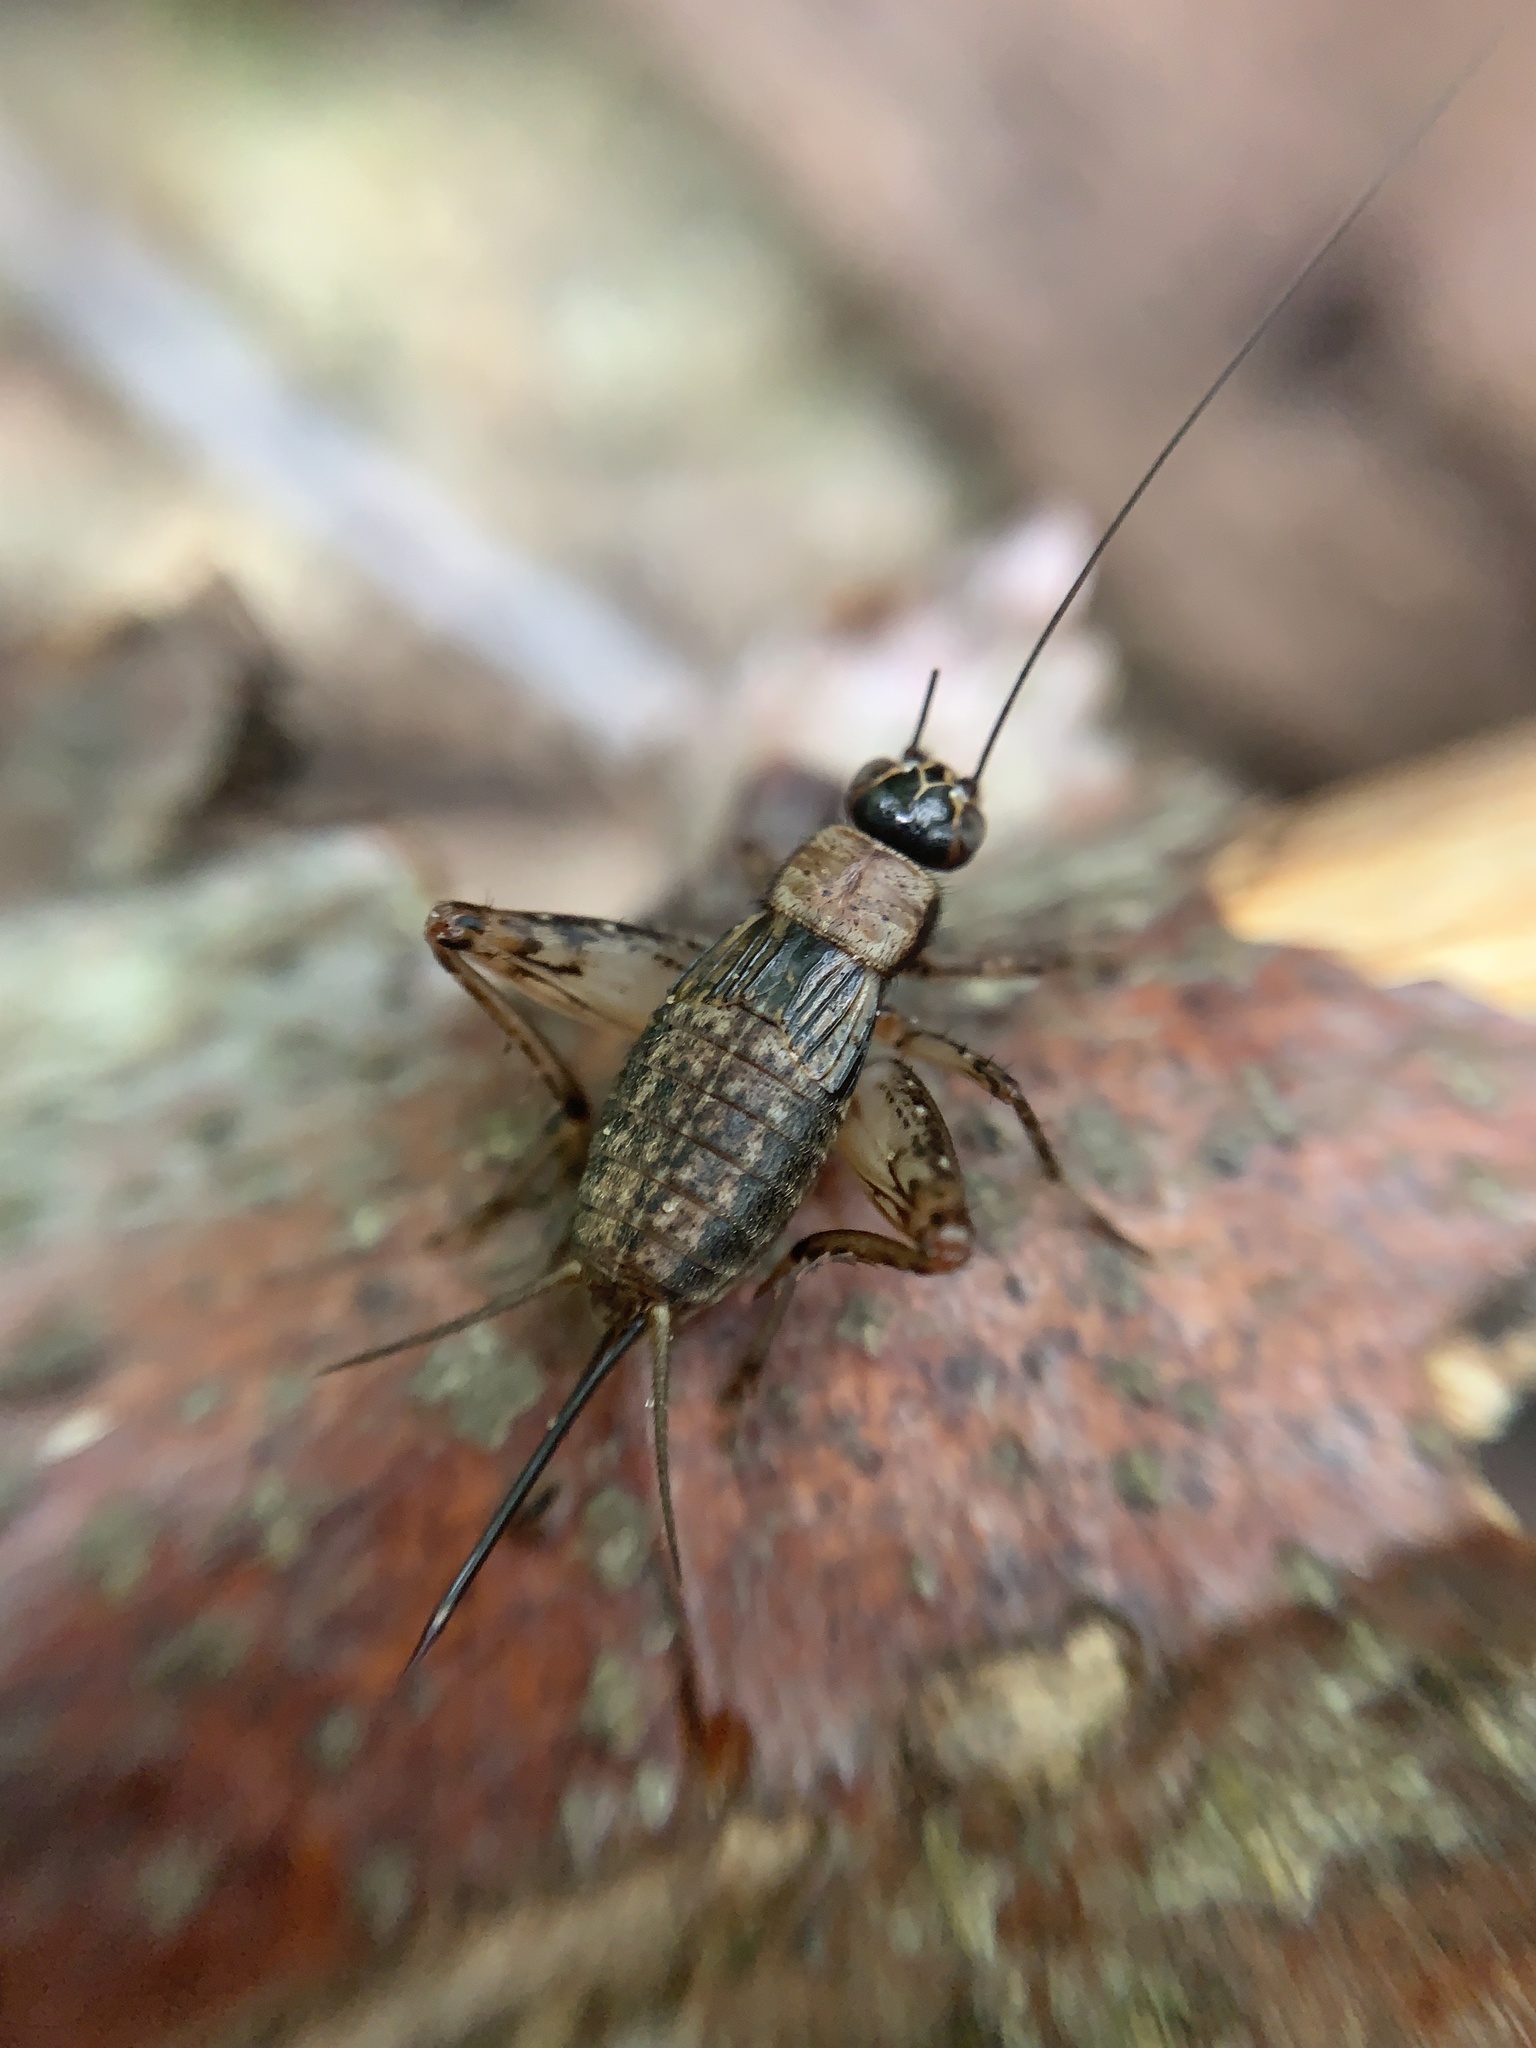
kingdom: Animalia
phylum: Arthropoda
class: Insecta
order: Orthoptera
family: Trigonidiidae
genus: Nemobius
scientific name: Nemobius sylvestris
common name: Wood-cricket
